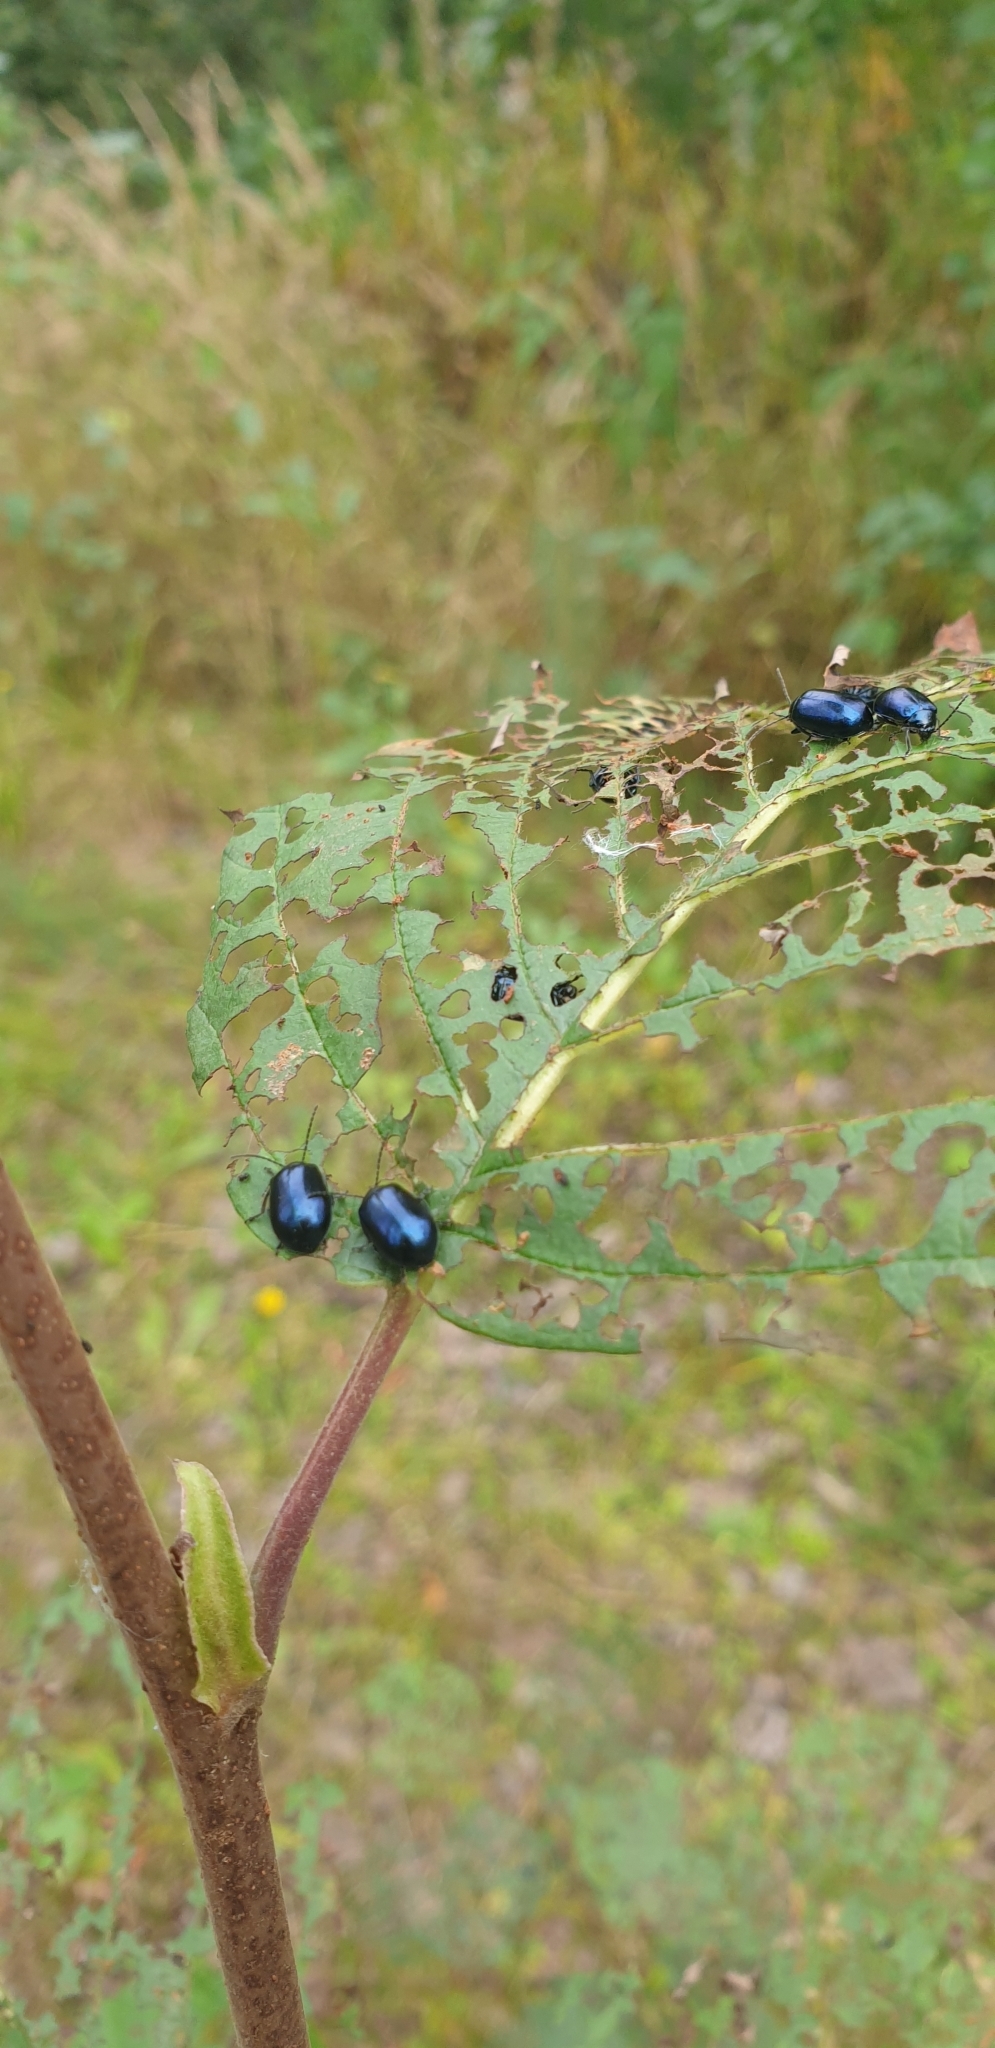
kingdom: Animalia
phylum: Arthropoda
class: Insecta
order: Coleoptera
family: Chrysomelidae
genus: Agelastica
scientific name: Agelastica alni
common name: Alder leaf beetle
